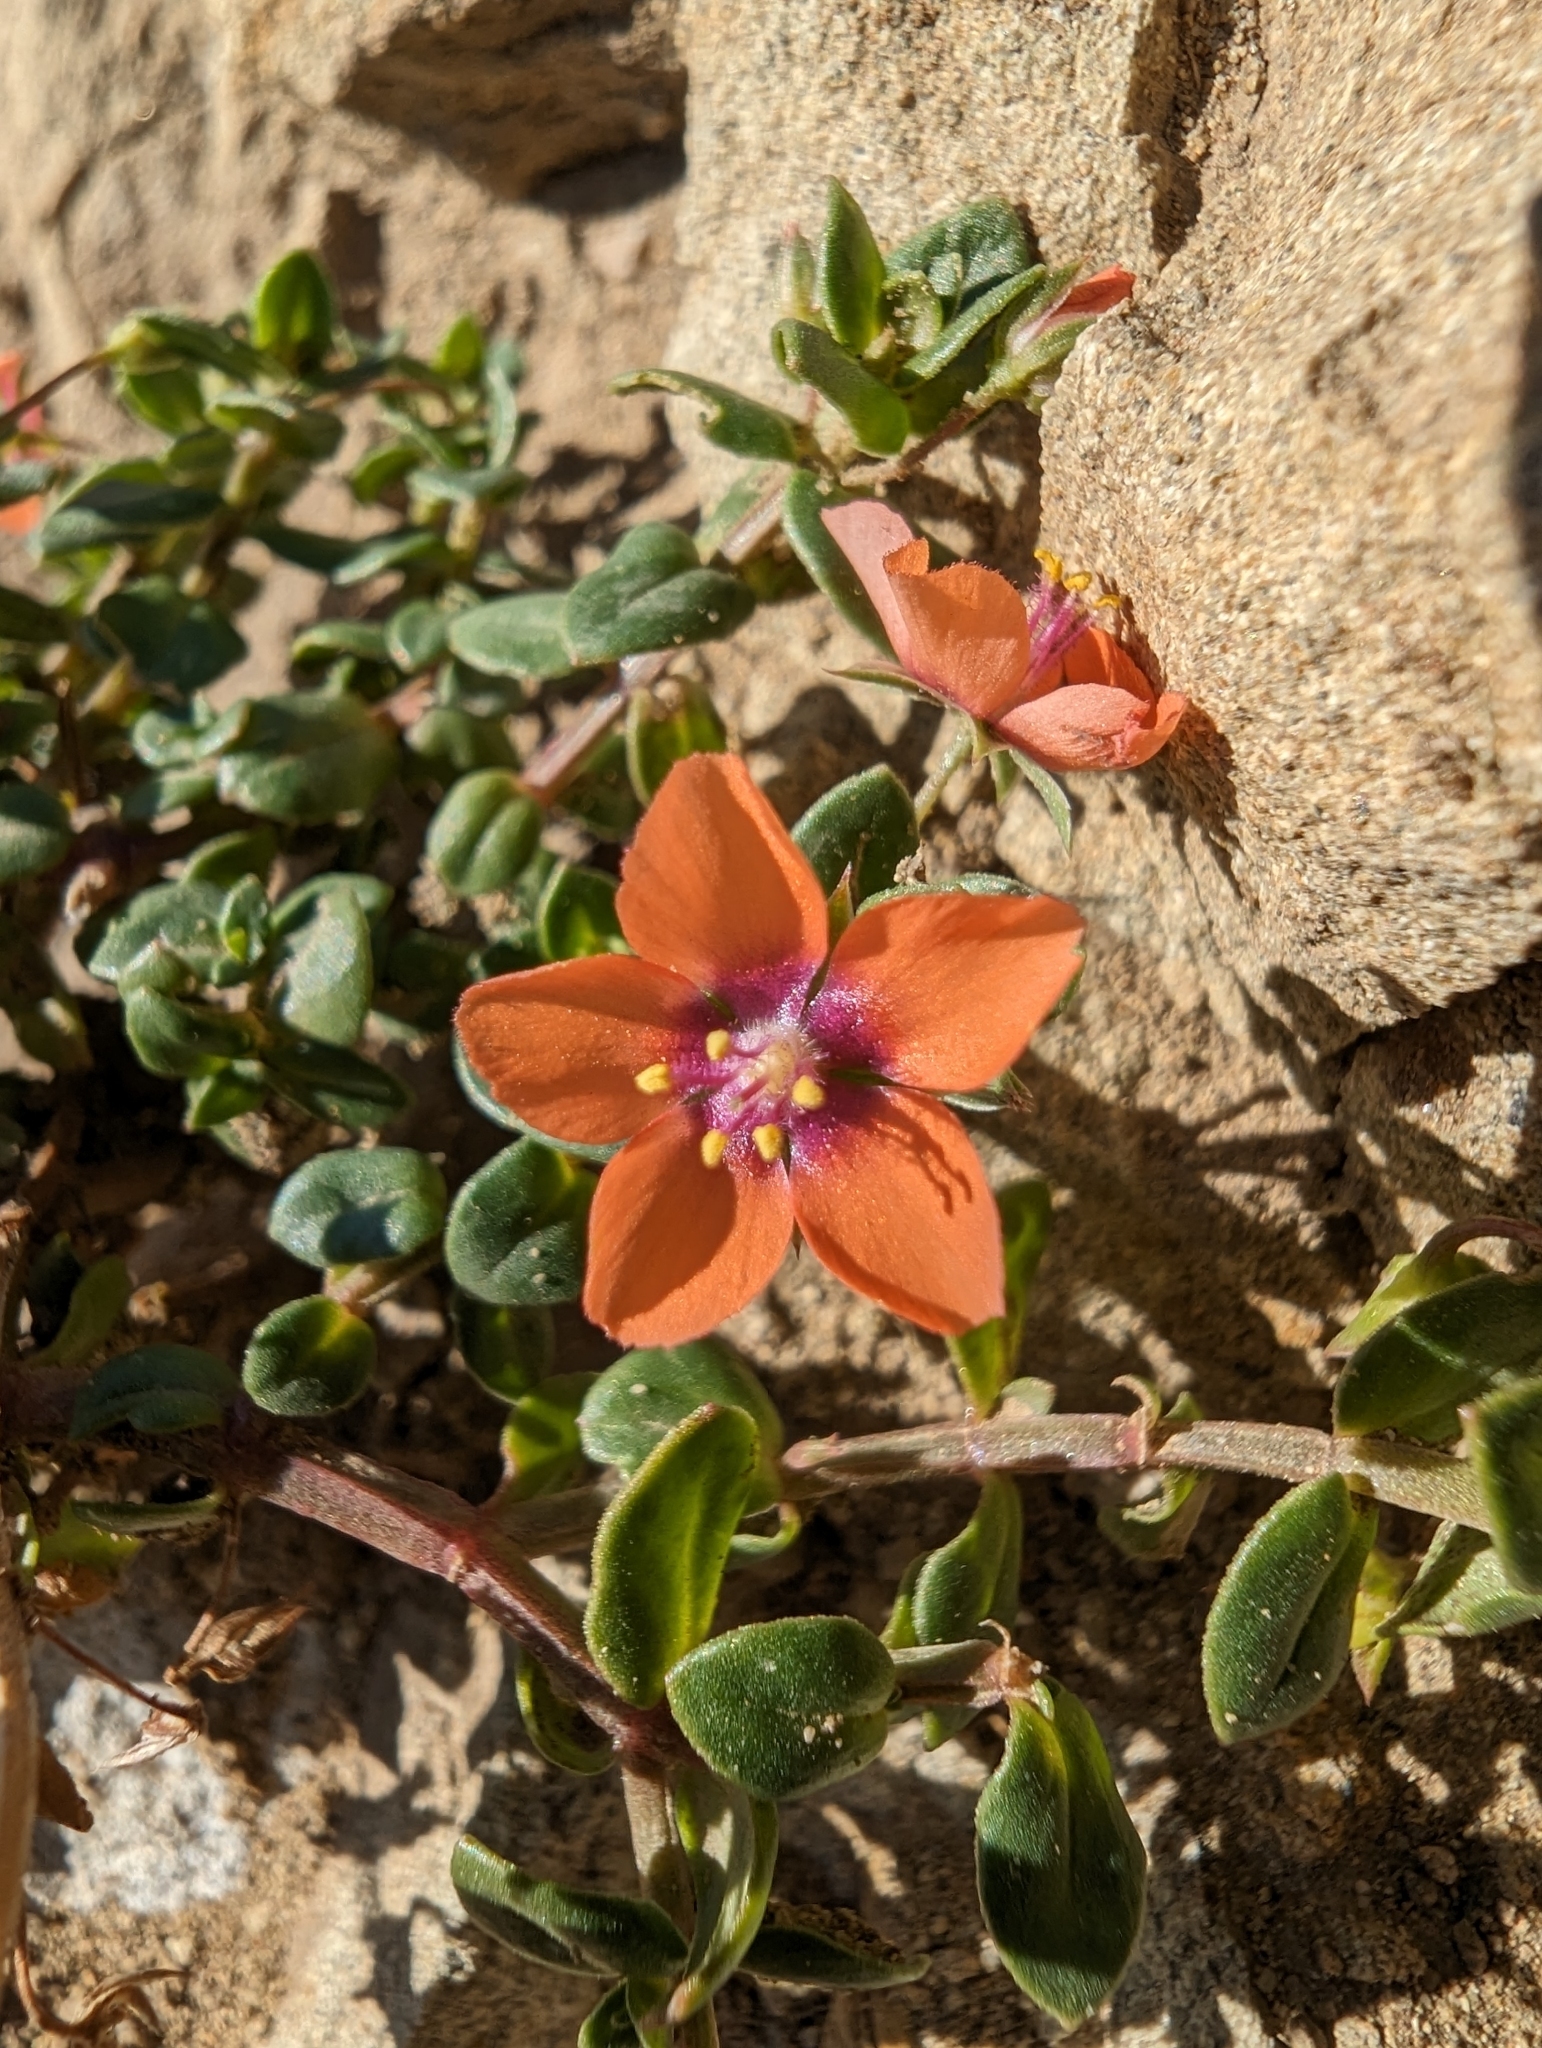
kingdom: Plantae
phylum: Tracheophyta
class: Magnoliopsida
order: Ericales
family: Primulaceae
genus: Lysimachia
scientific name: Lysimachia arvensis
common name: Scarlet pimpernel
